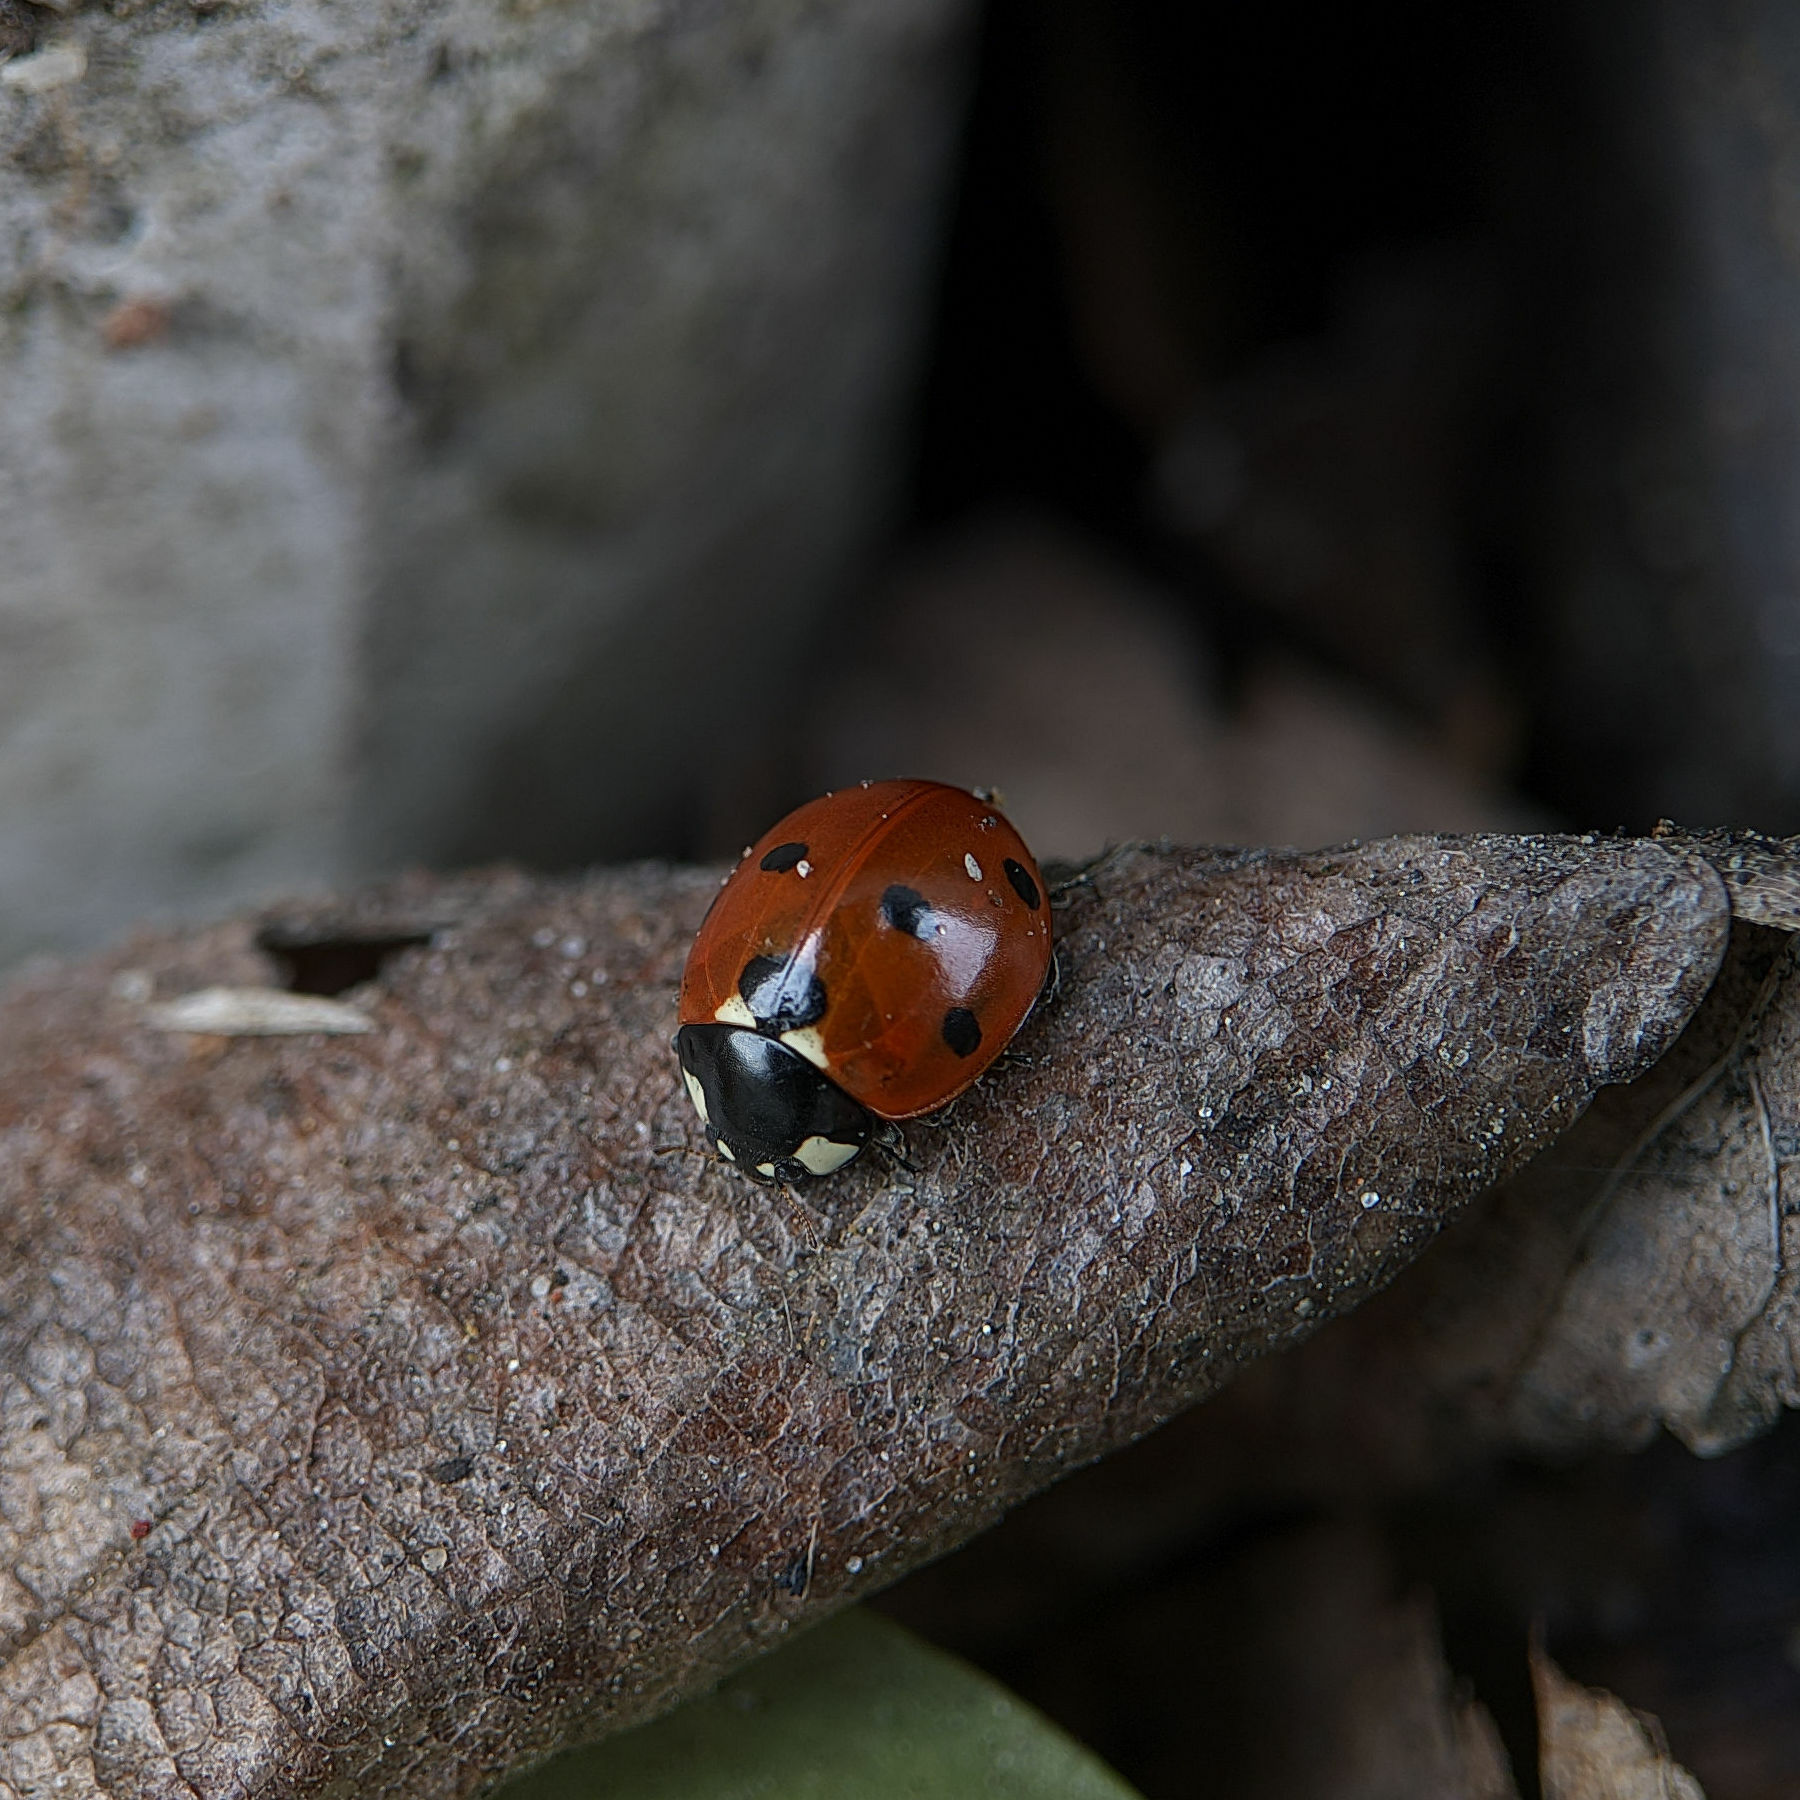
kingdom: Animalia
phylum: Arthropoda
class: Insecta
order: Coleoptera
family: Coccinellidae
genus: Coccinella
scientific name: Coccinella septempunctata
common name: Sevenspotted lady beetle
